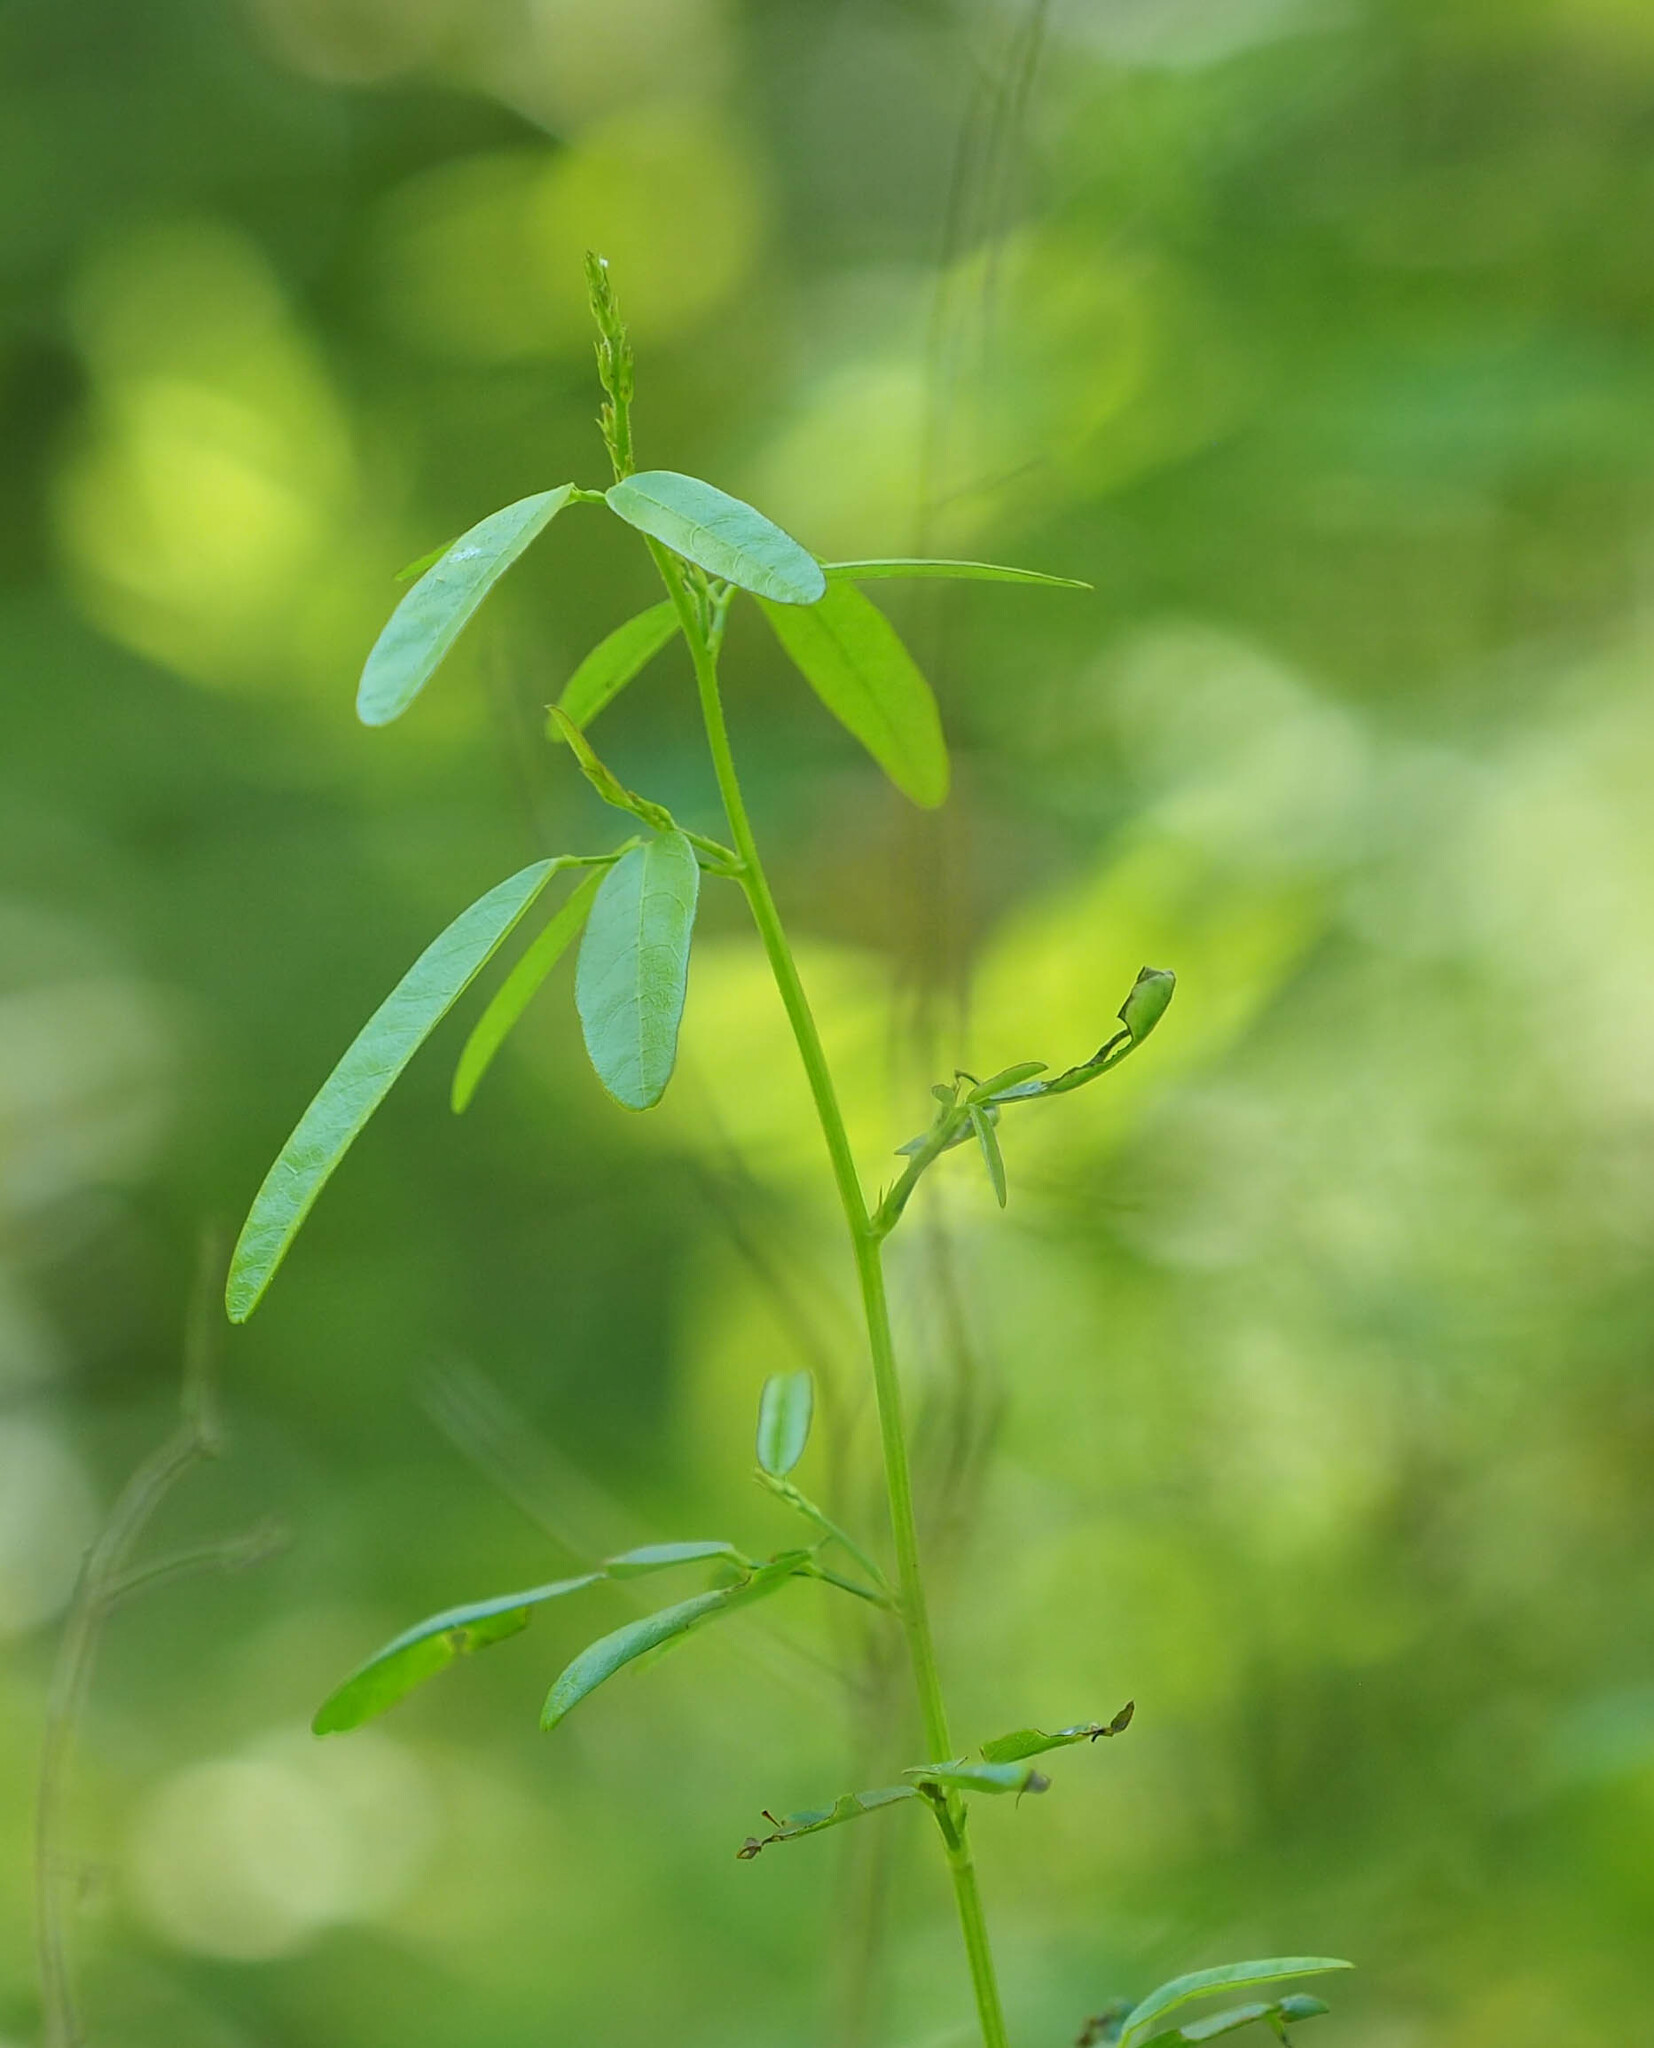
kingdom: Plantae
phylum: Tracheophyta
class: Magnoliopsida
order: Fabales
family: Fabaceae
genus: Desmodium
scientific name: Desmodium paniculatum
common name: Panicled tick-clover
